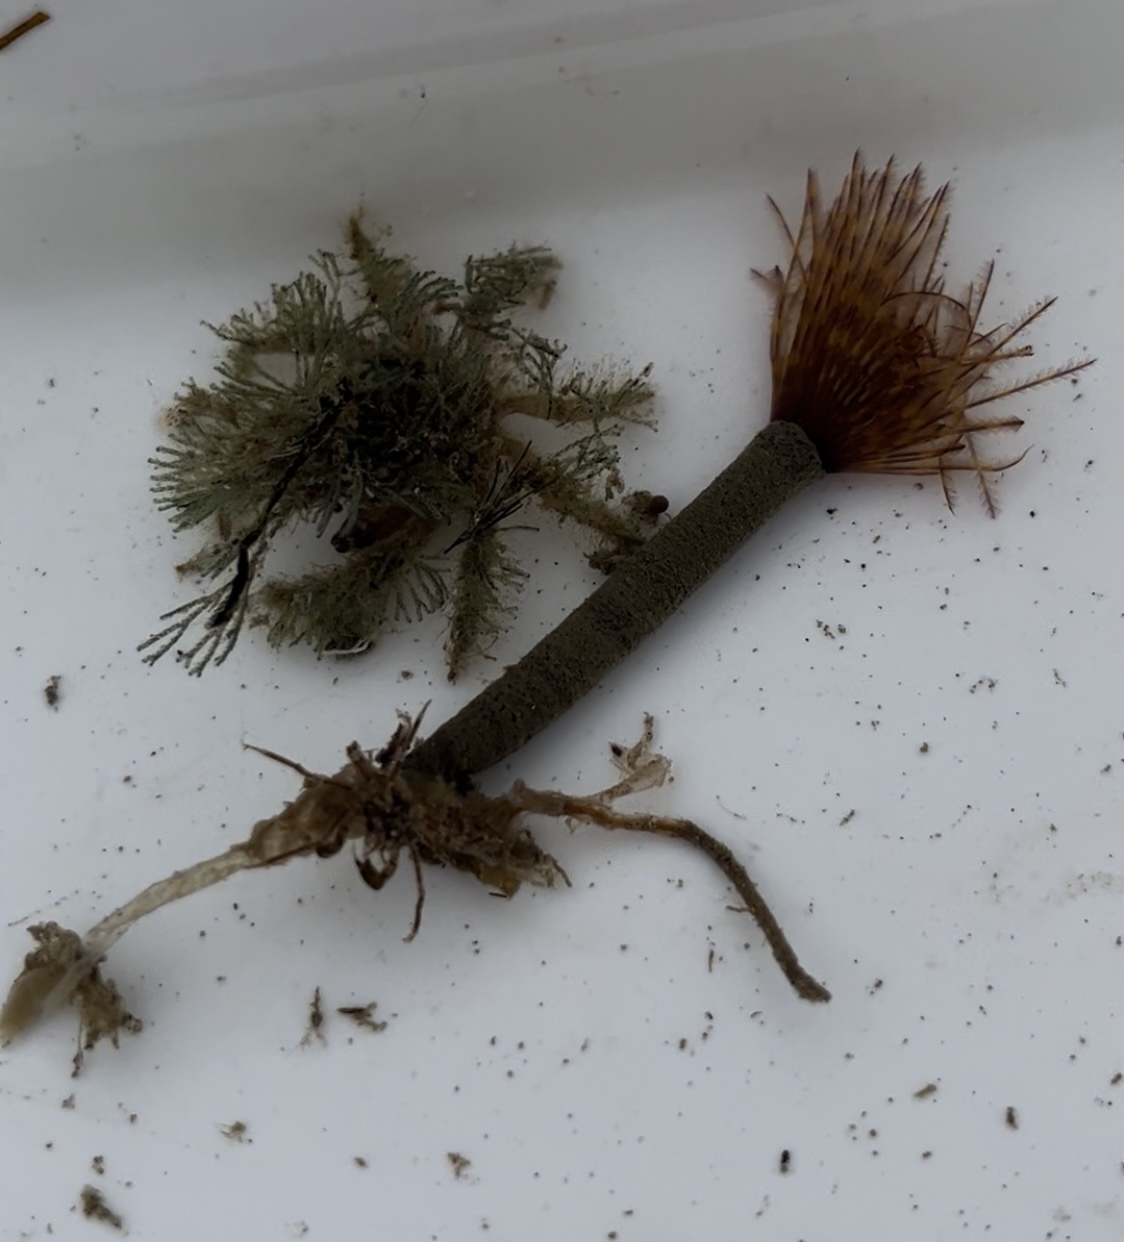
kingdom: Animalia
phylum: Annelida
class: Polychaeta
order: Sabellida
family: Sabellidae
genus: Sabella
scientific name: Sabella spallanzanii
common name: Feather duster worm
